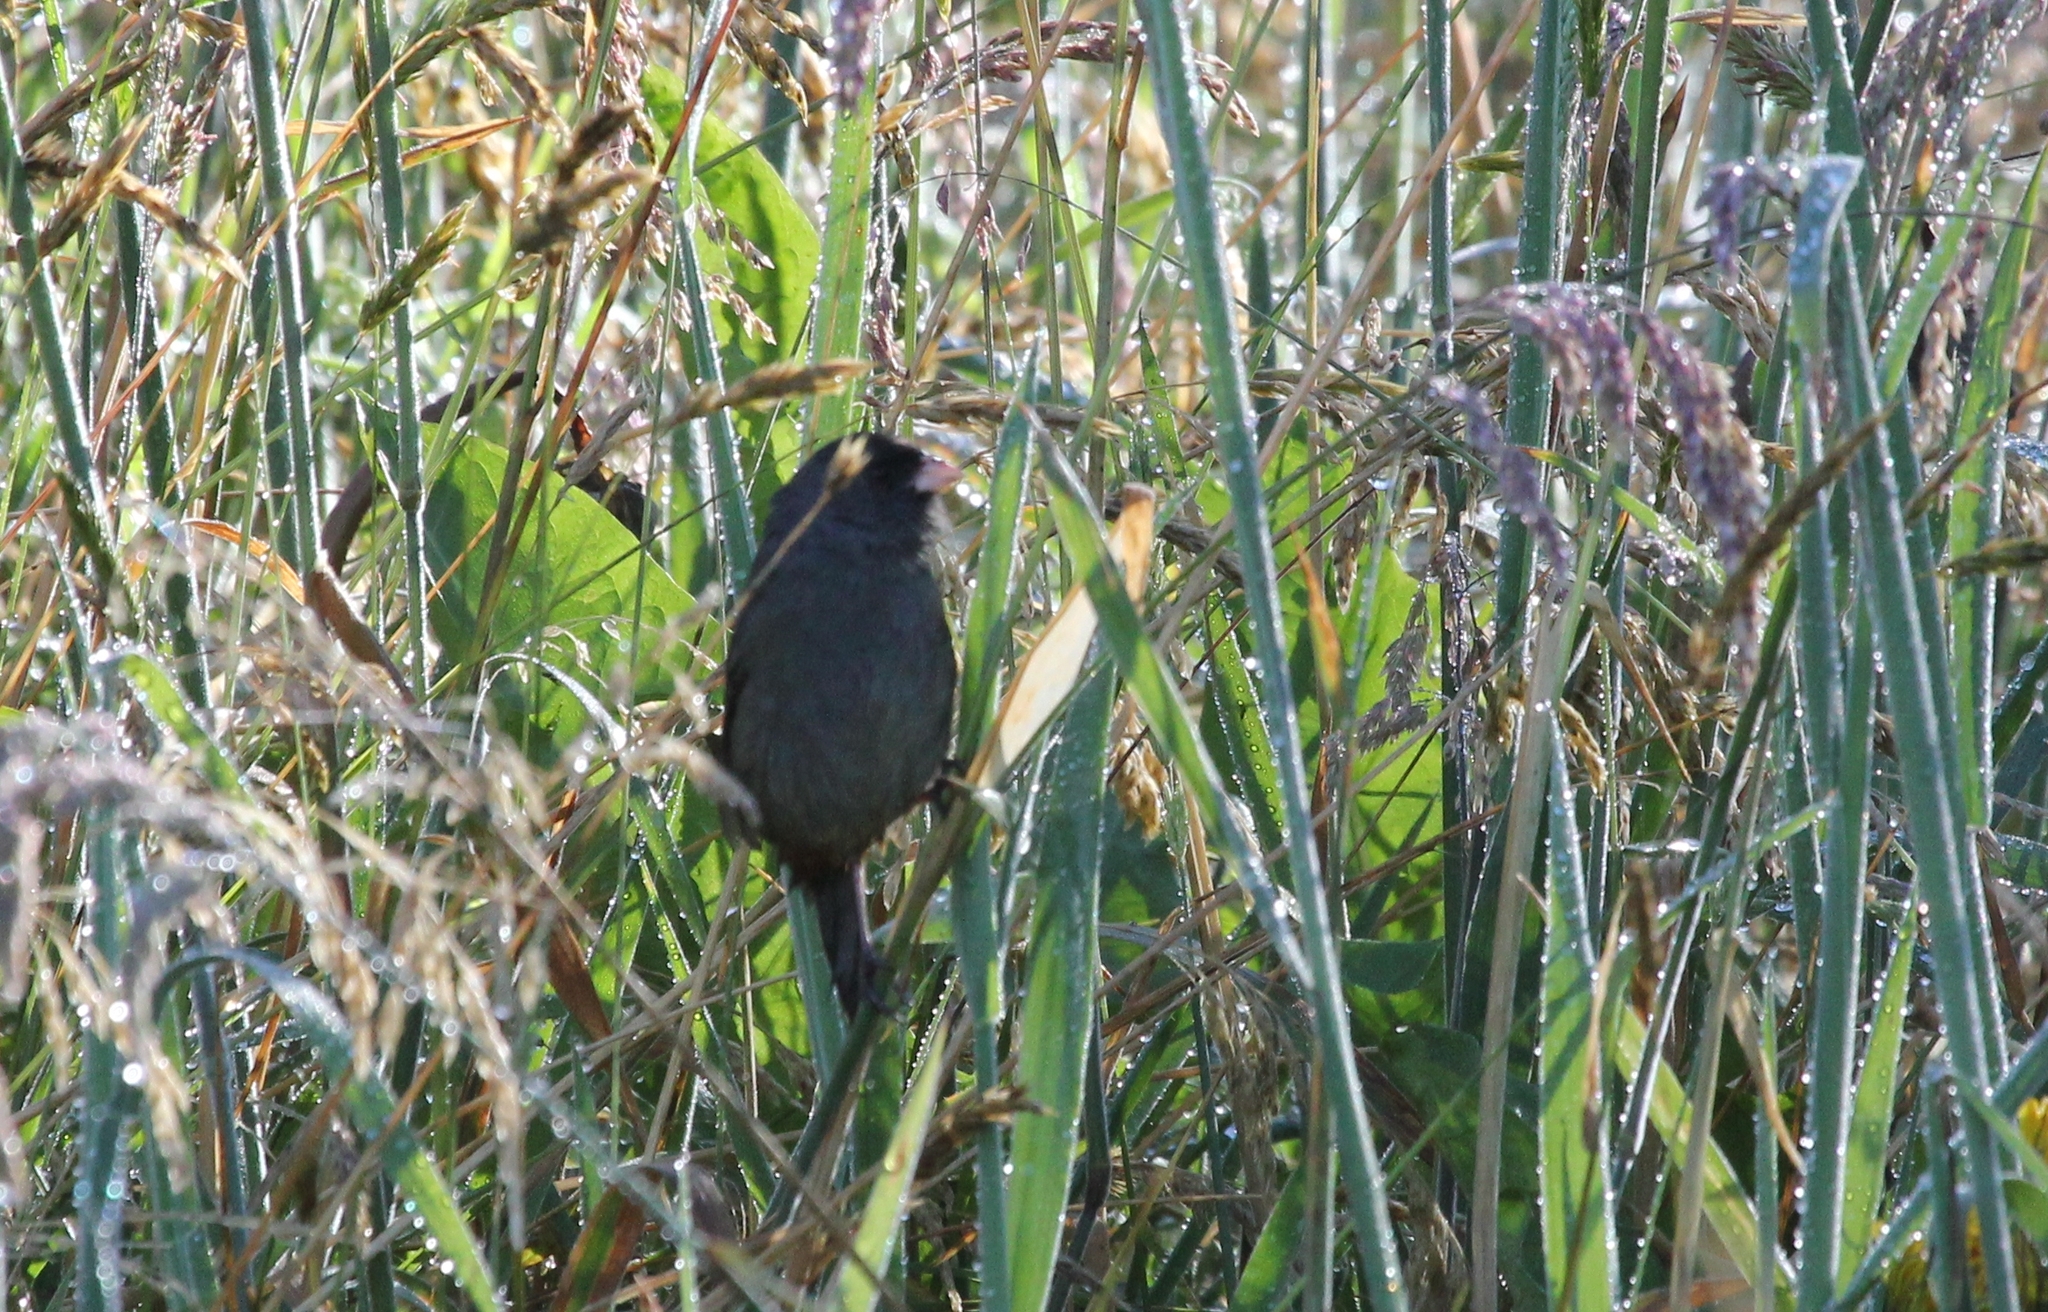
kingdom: Animalia
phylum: Chordata
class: Aves
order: Passeriformes
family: Thraupidae
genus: Catamenia
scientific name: Catamenia homochroa
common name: Paramo seedeater
